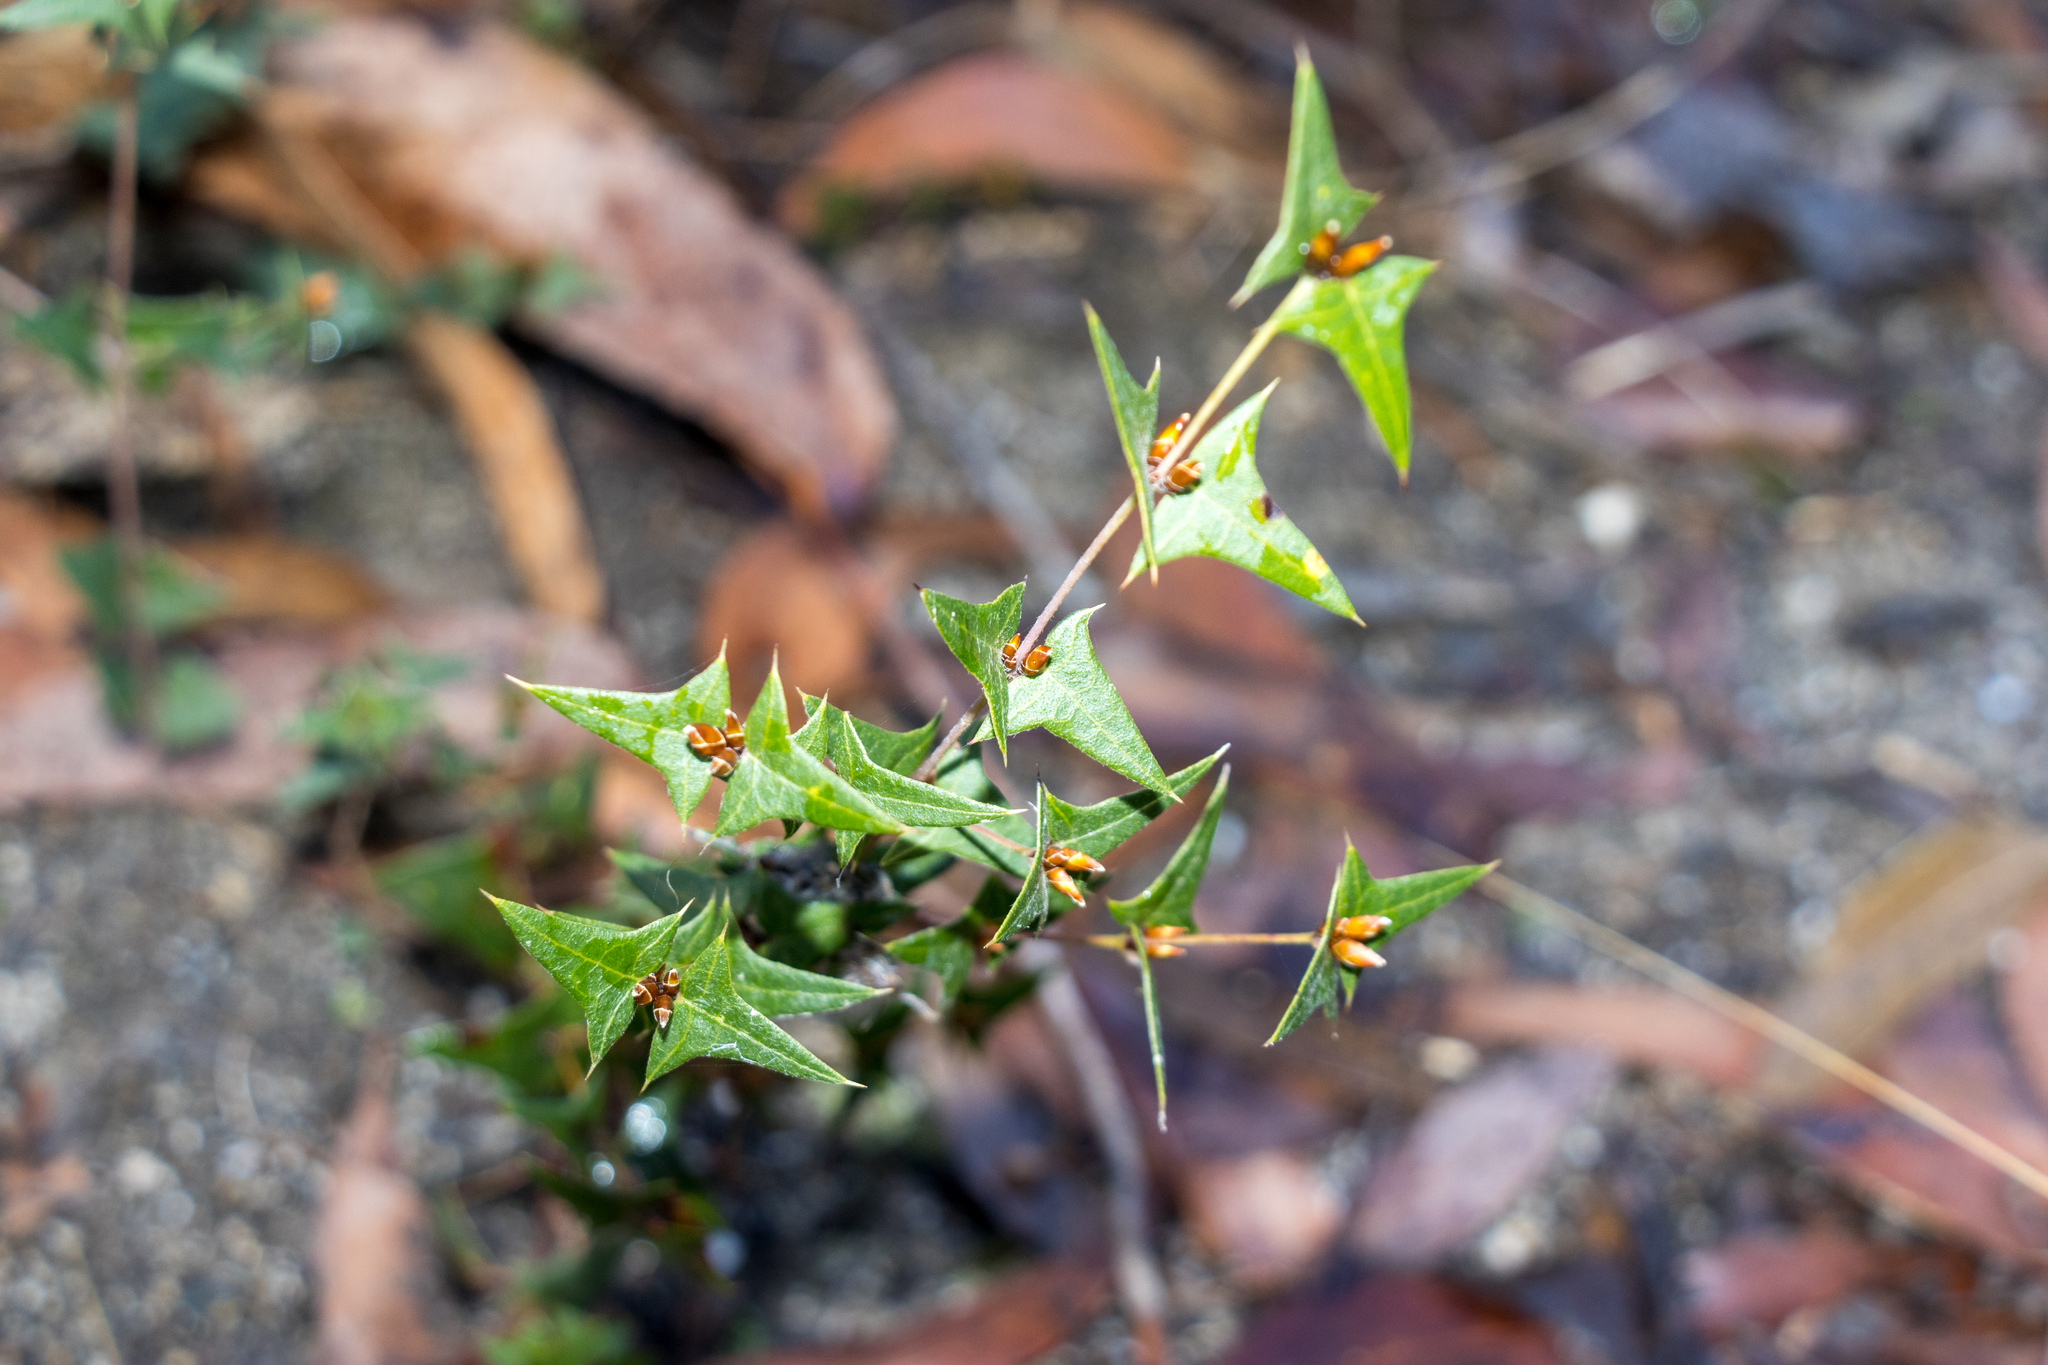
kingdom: Plantae
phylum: Tracheophyta
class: Magnoliopsida
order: Fabales
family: Fabaceae
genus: Platylobium
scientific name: Platylobium obtusangulum
